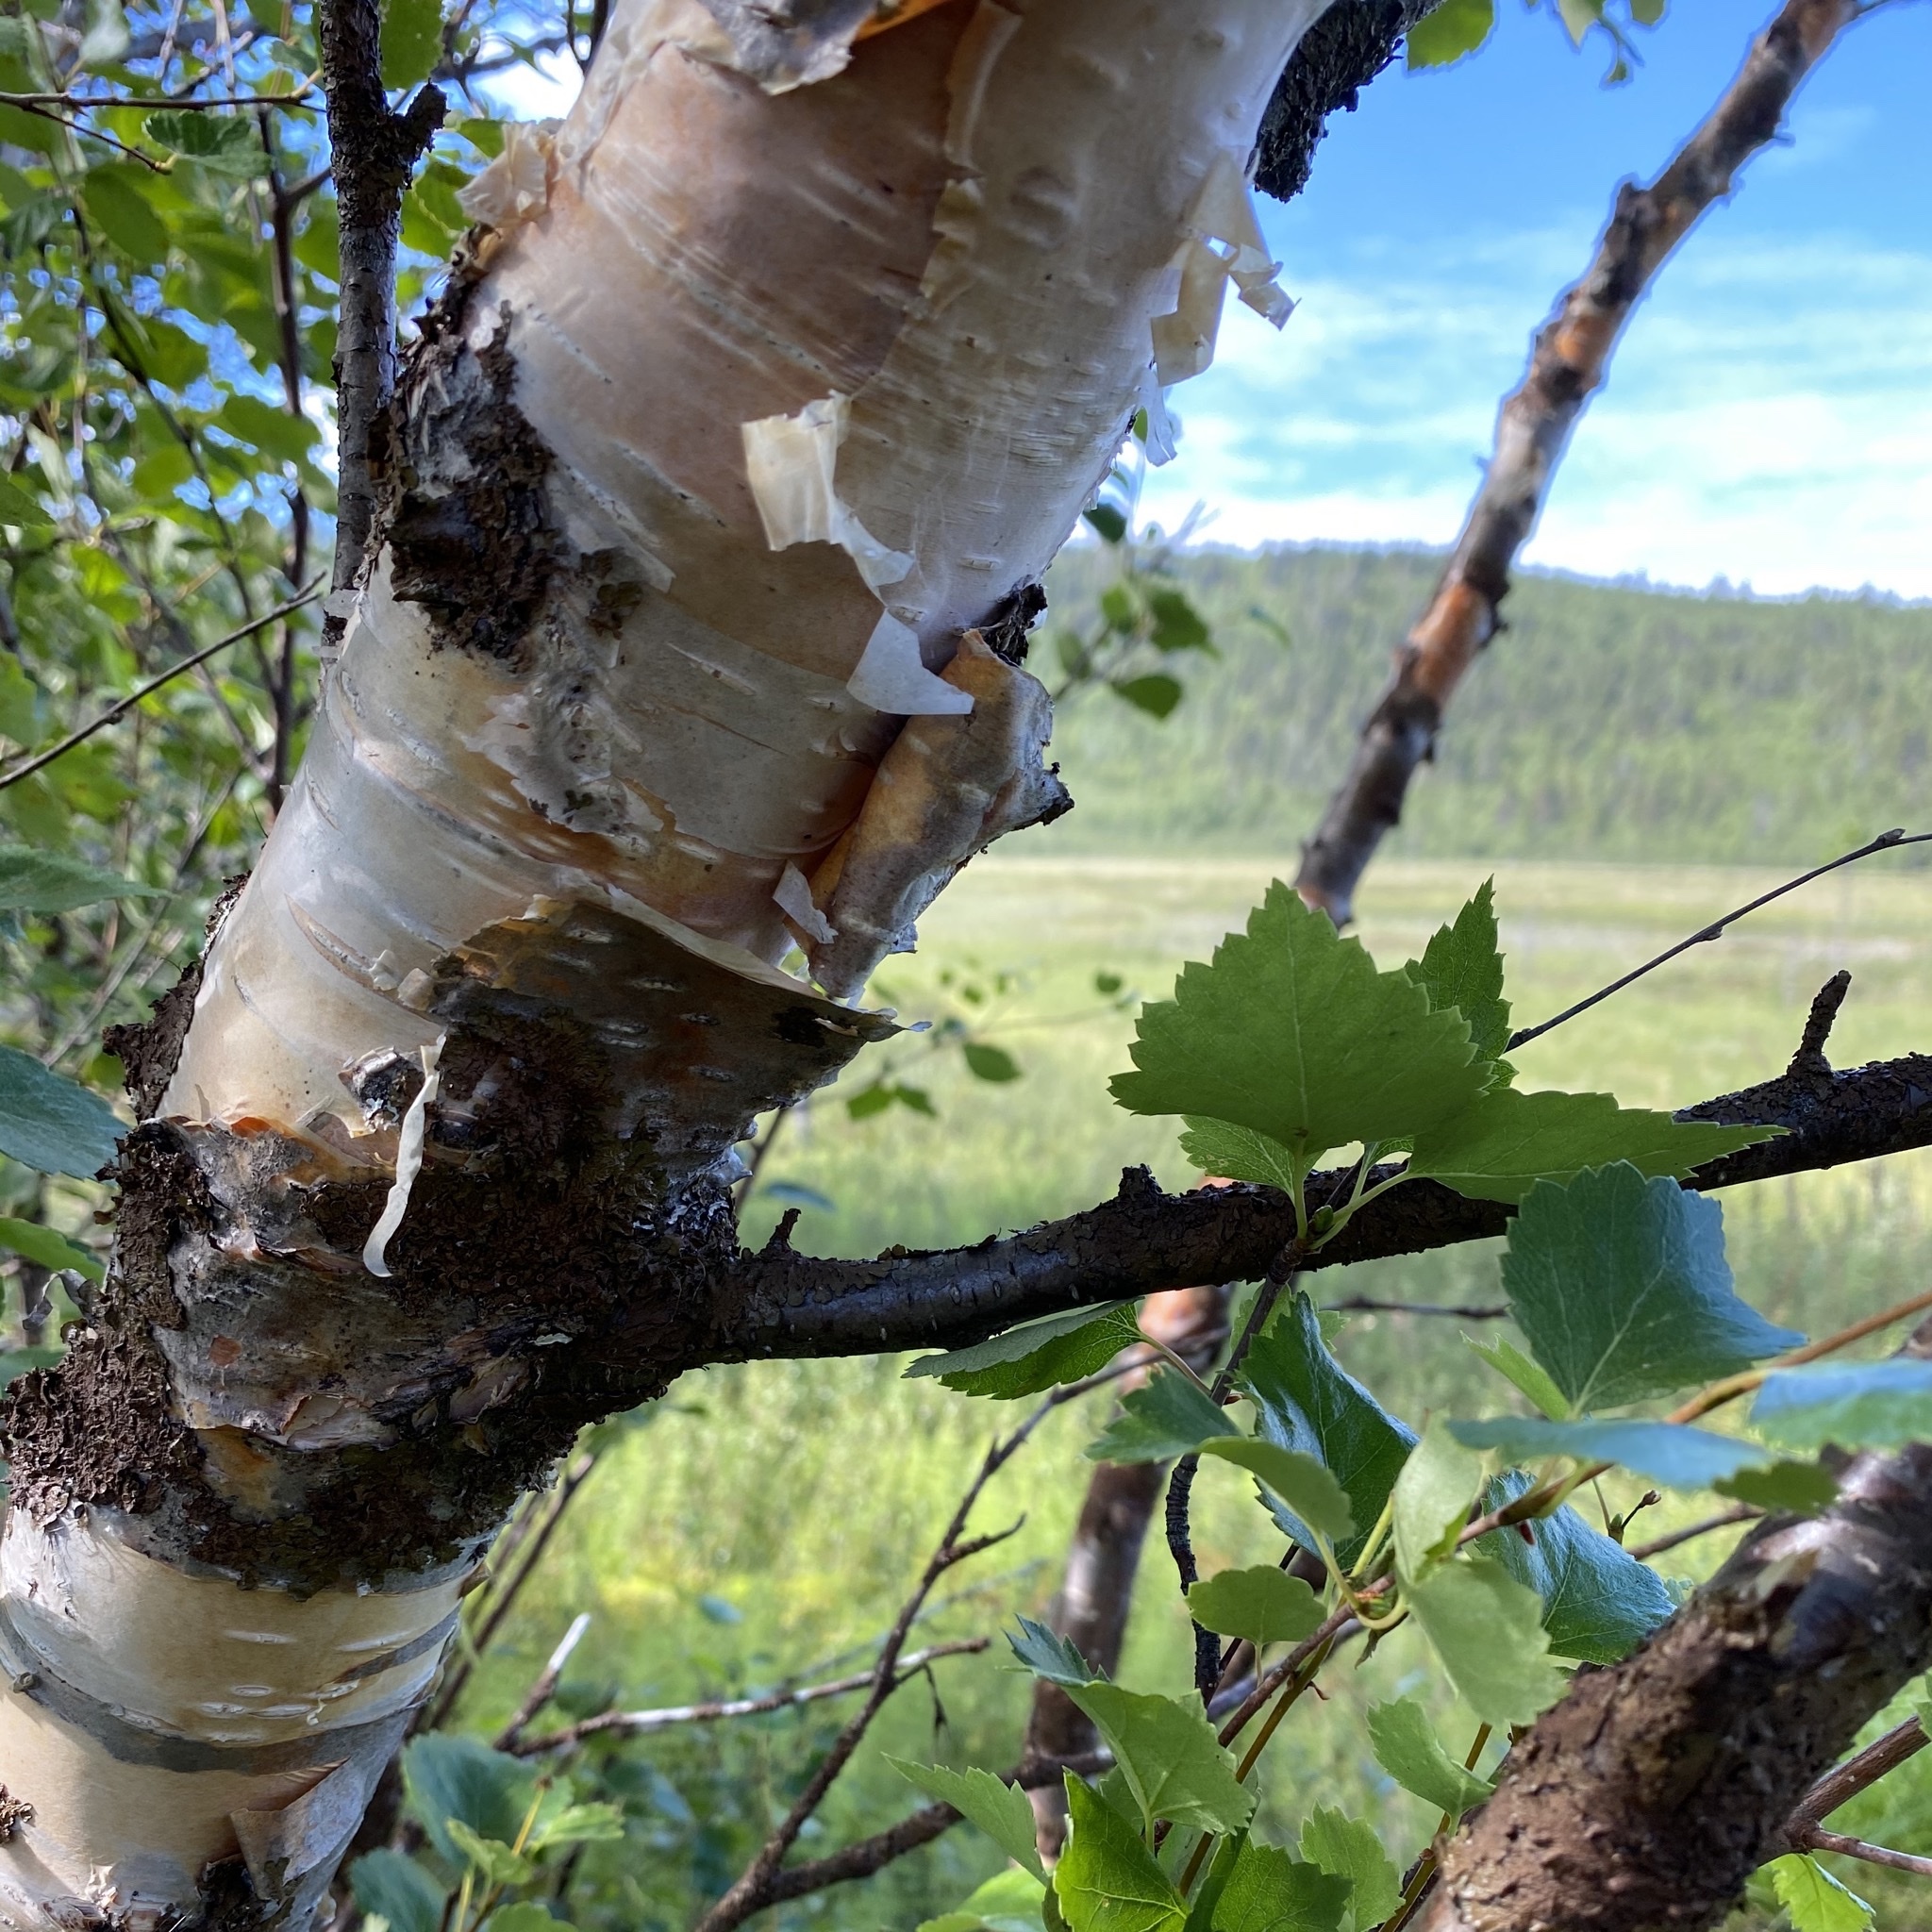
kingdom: Plantae
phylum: Tracheophyta
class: Magnoliopsida
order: Fagales
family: Betulaceae
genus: Betula
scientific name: Betula pubescens
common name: Downy birch
